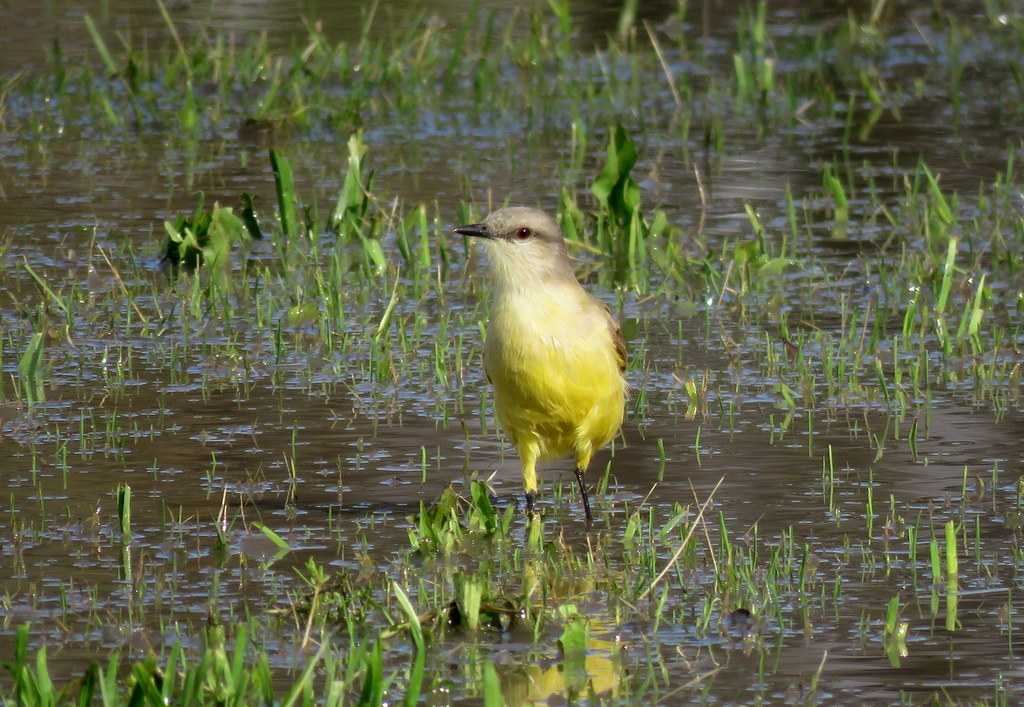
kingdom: Animalia
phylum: Chordata
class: Aves
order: Passeriformes
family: Tyrannidae
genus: Machetornis
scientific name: Machetornis rixosa
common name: Cattle tyrant
